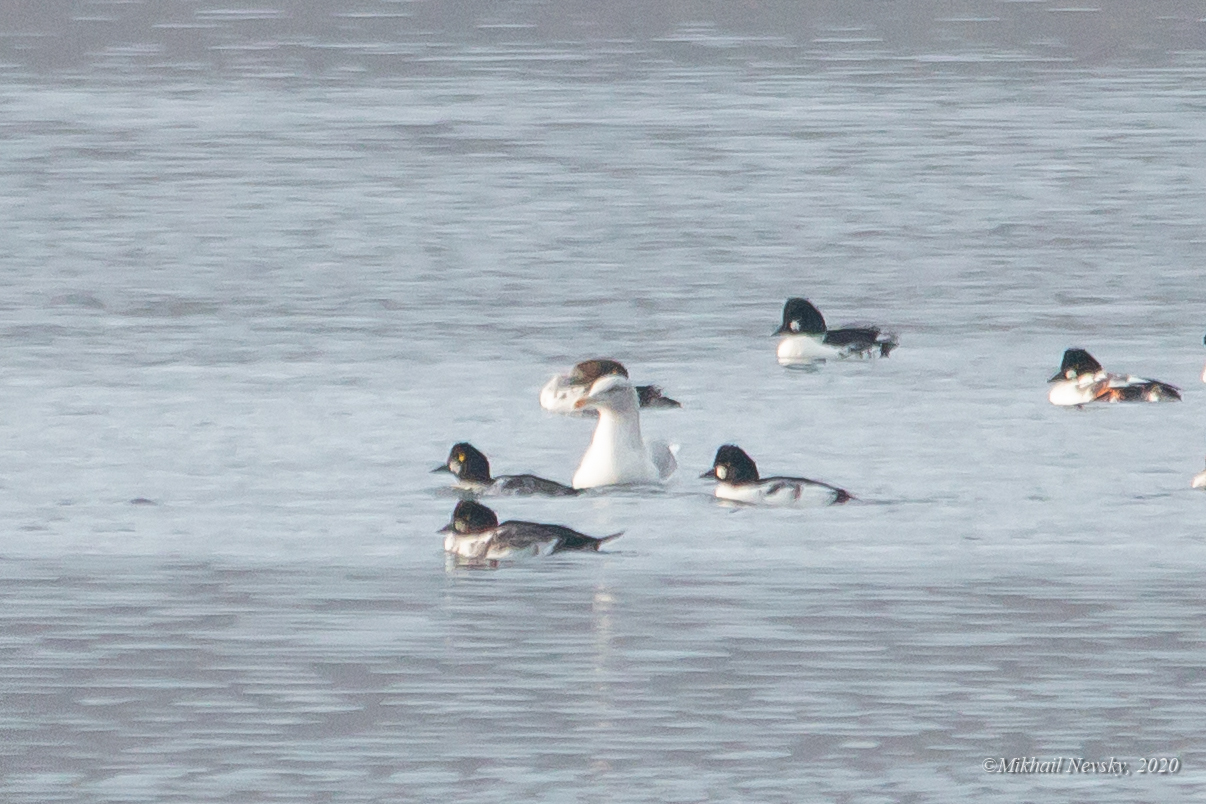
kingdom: Animalia
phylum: Chordata
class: Aves
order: Charadriiformes
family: Laridae
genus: Larus
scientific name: Larus hyperboreus
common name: Glaucous gull
